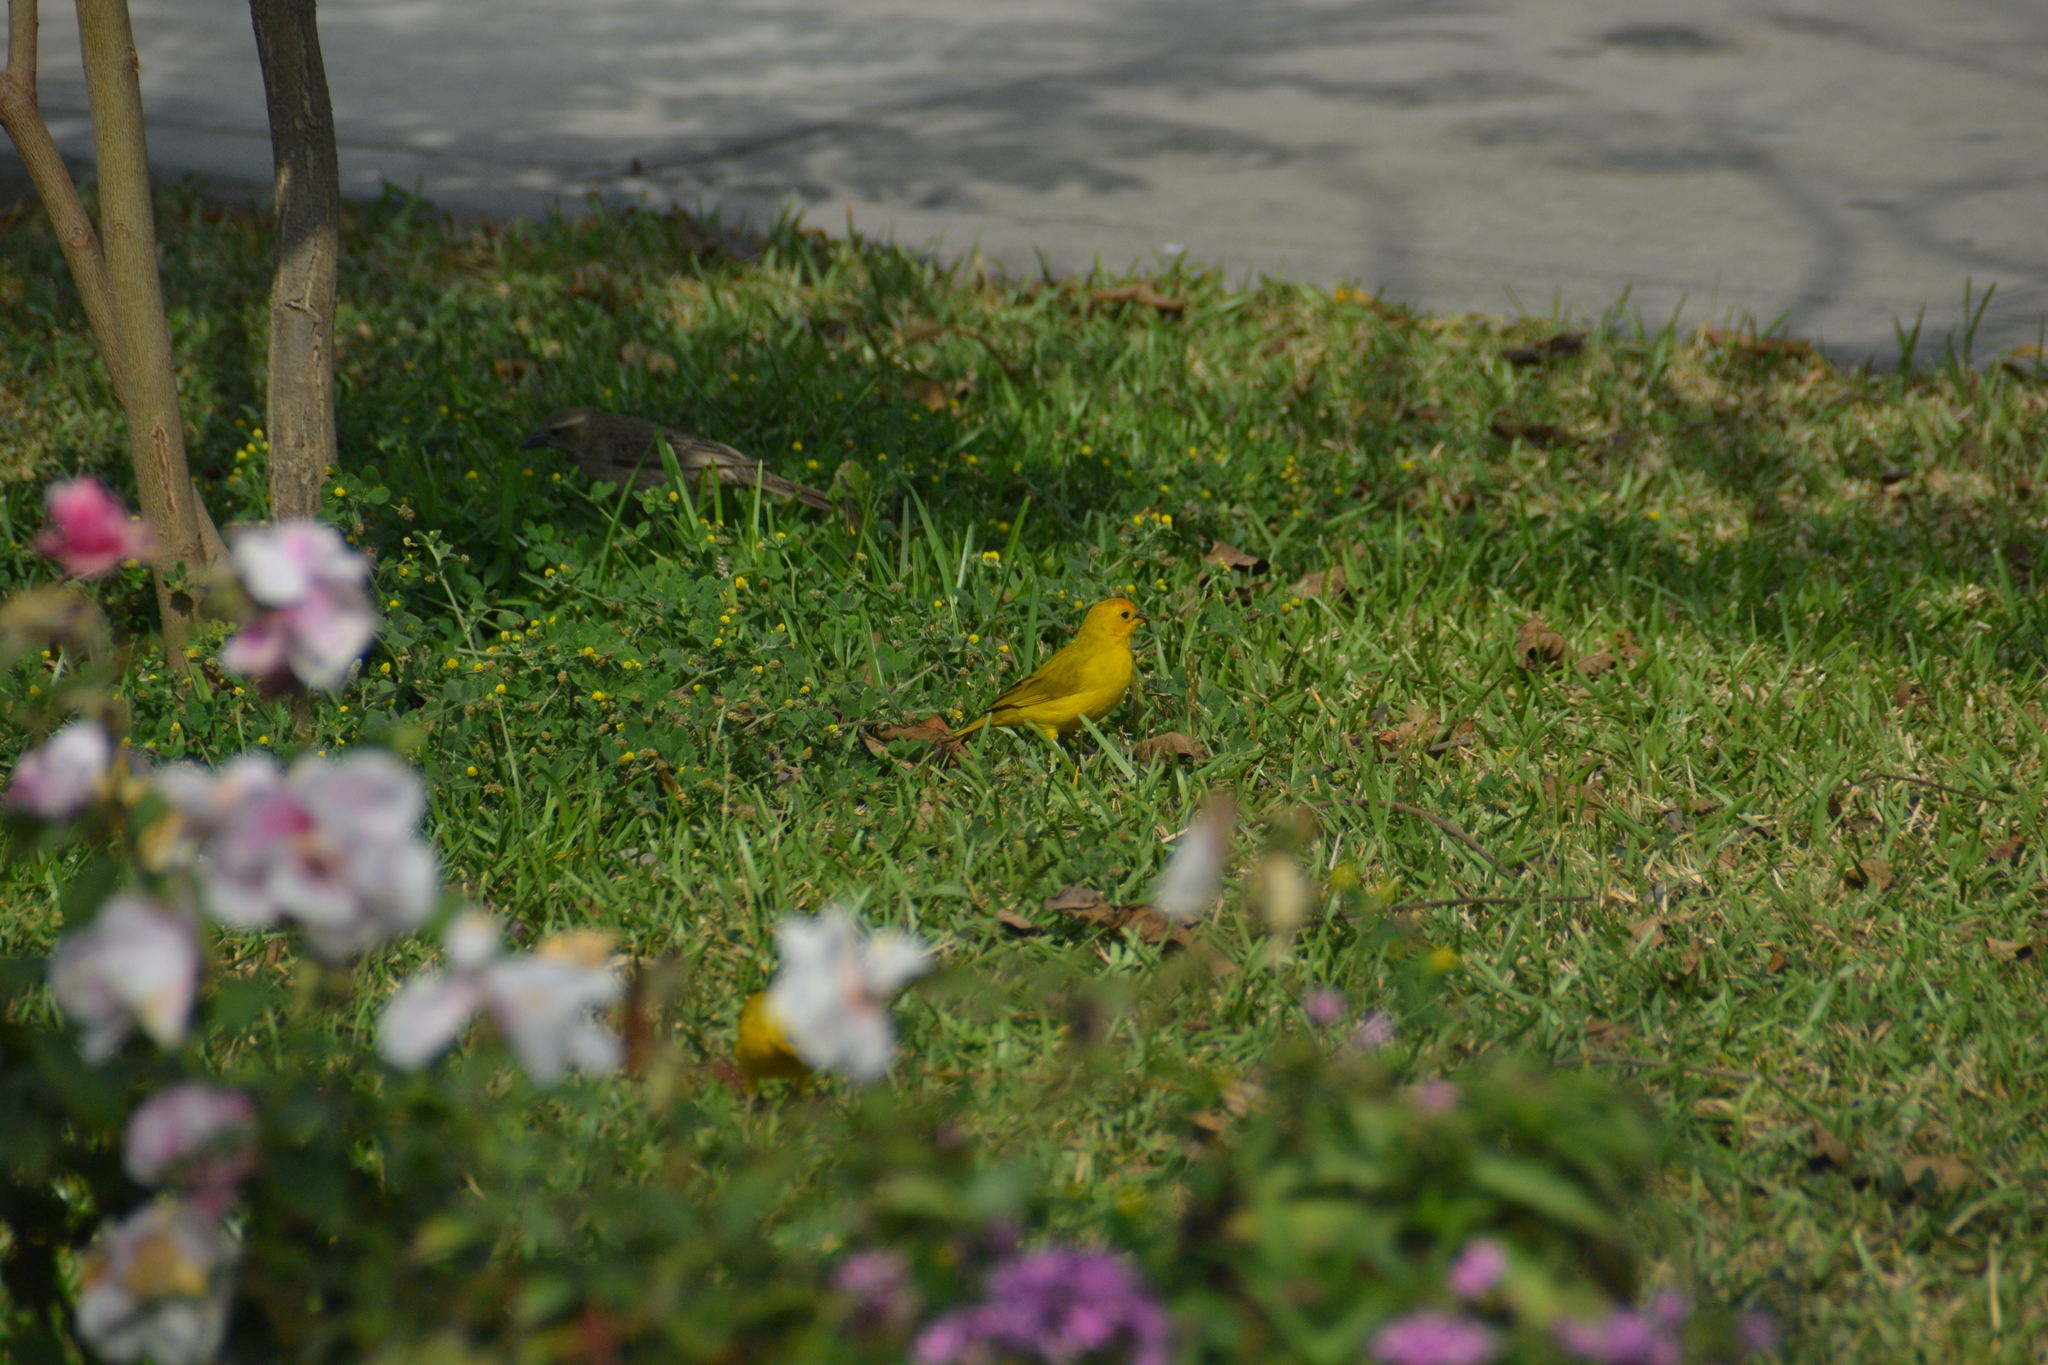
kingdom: Animalia
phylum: Chordata
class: Aves
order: Passeriformes
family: Thraupidae
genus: Sicalis
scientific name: Sicalis flaveola
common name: Saffron finch
